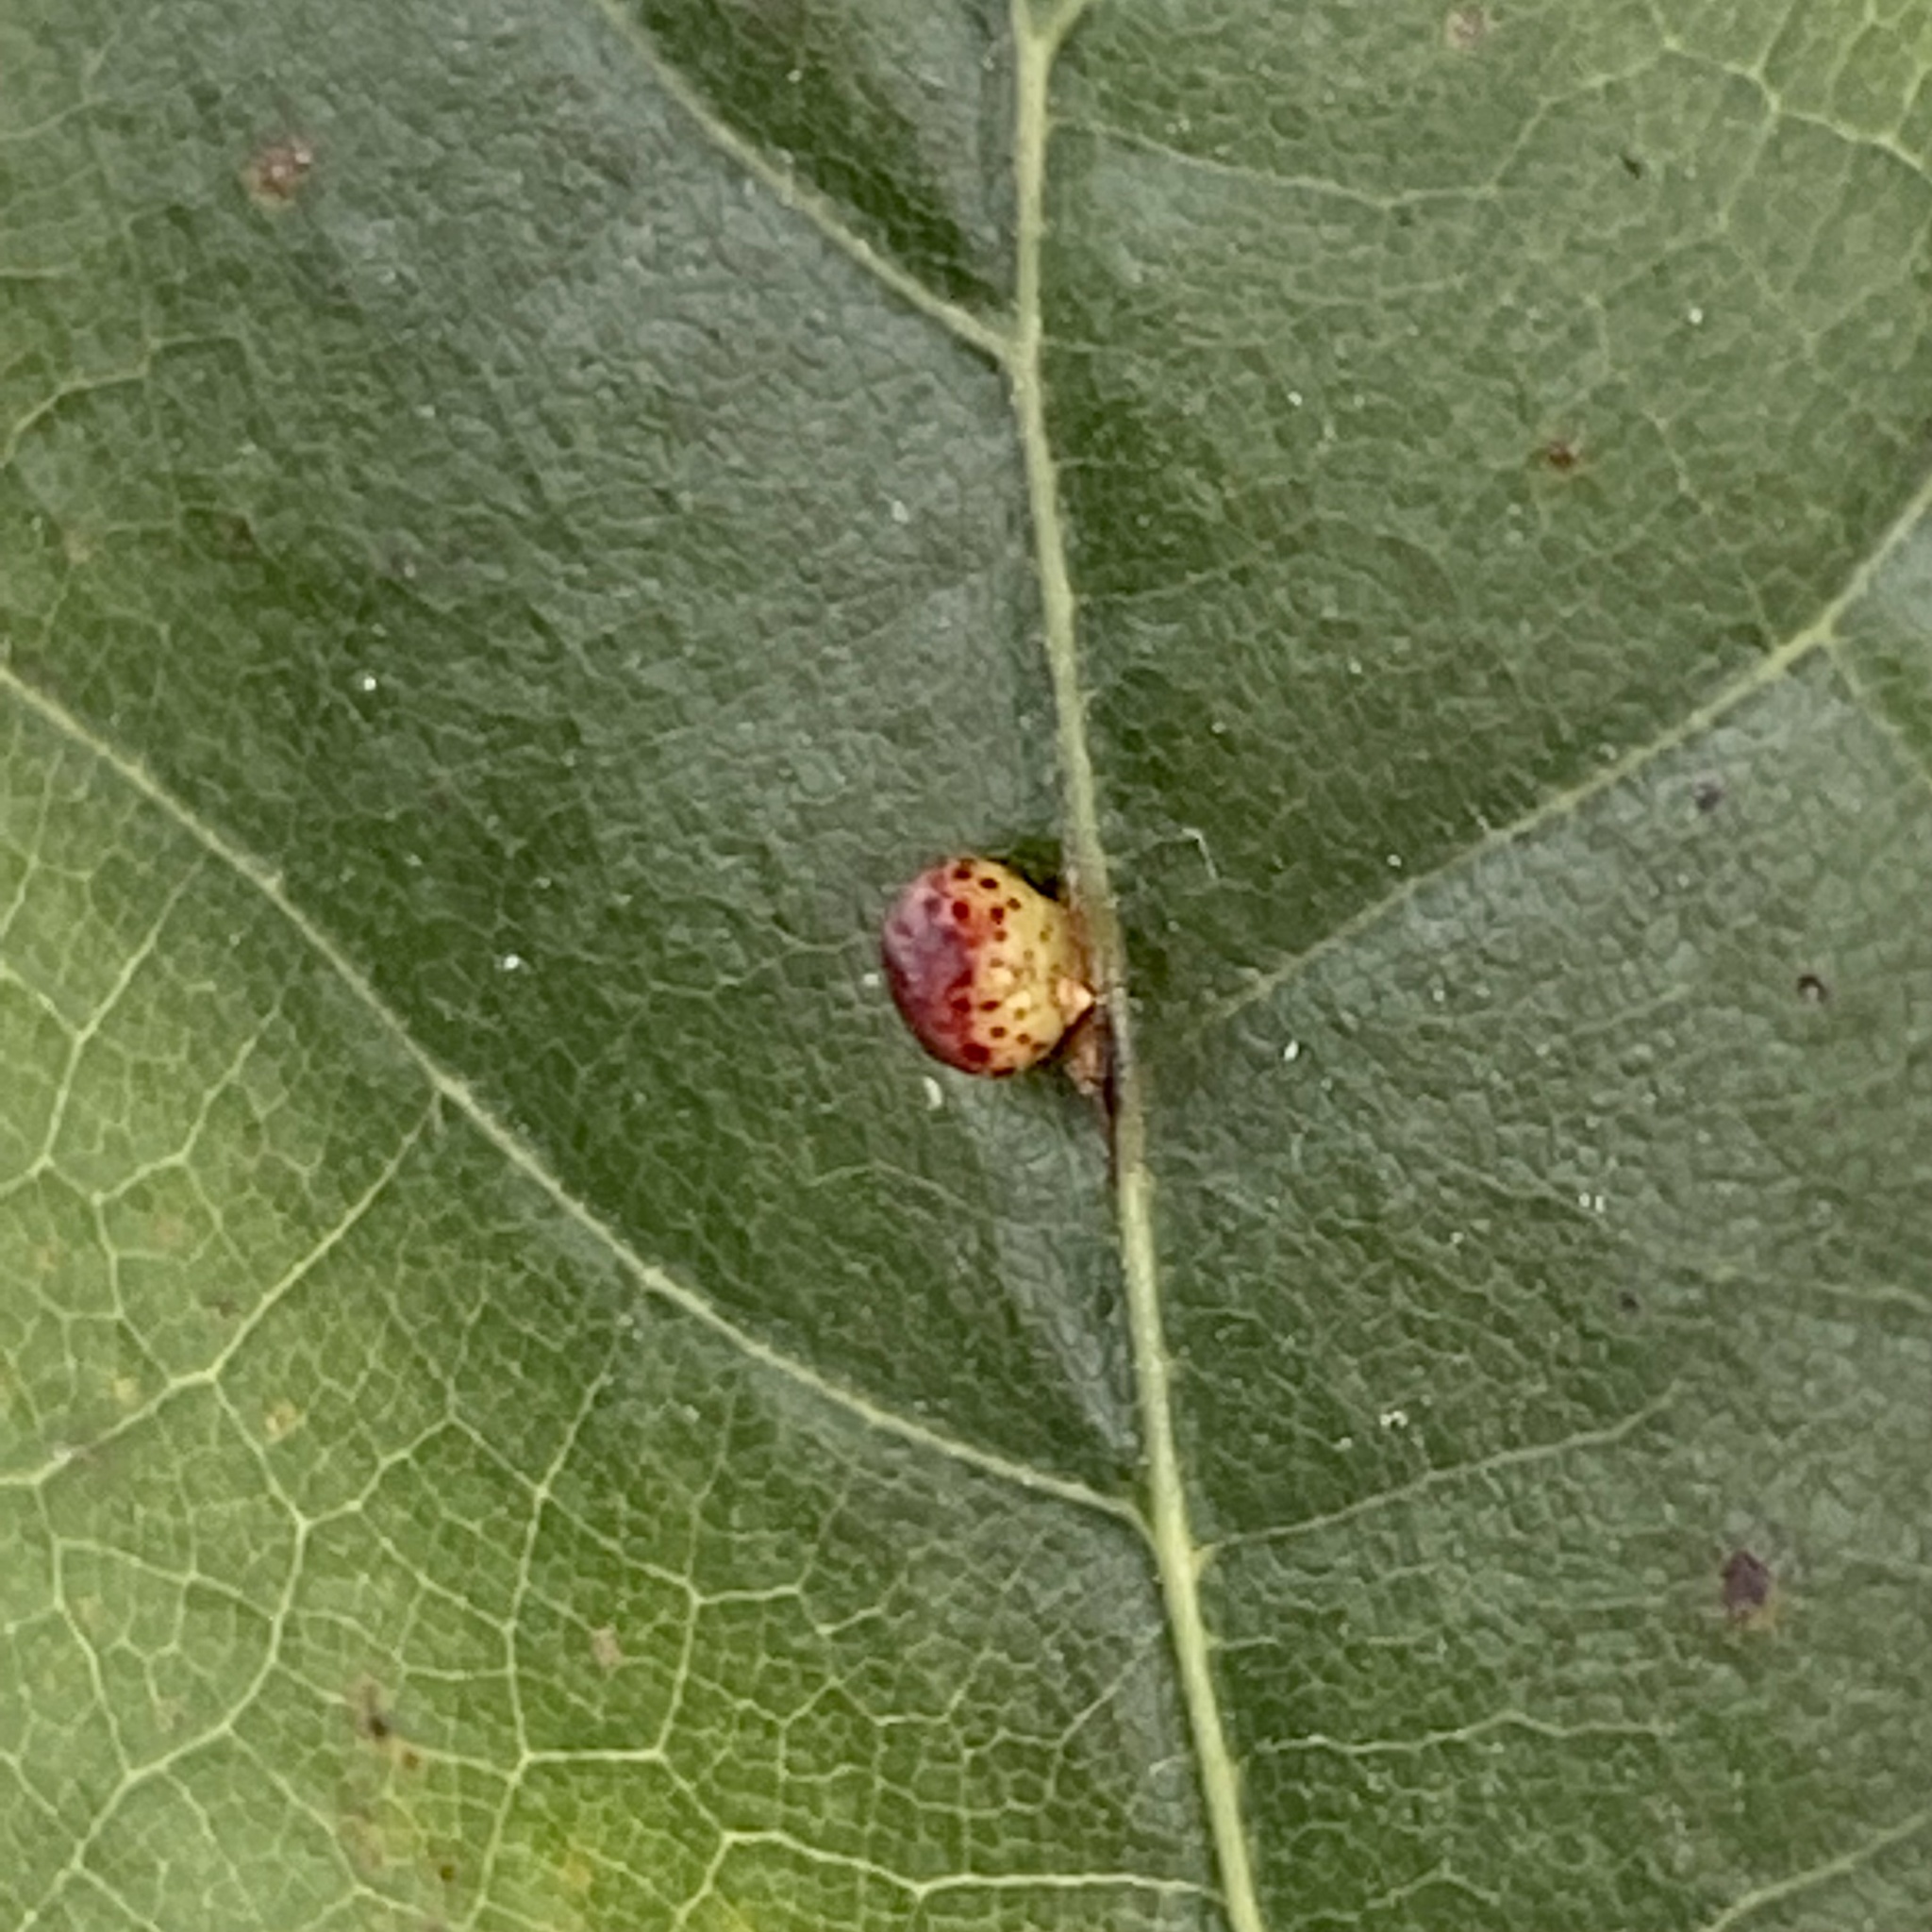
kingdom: Animalia
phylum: Arthropoda
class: Insecta
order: Hymenoptera
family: Cynipidae
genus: Zopheroteras
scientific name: Zopheroteras
